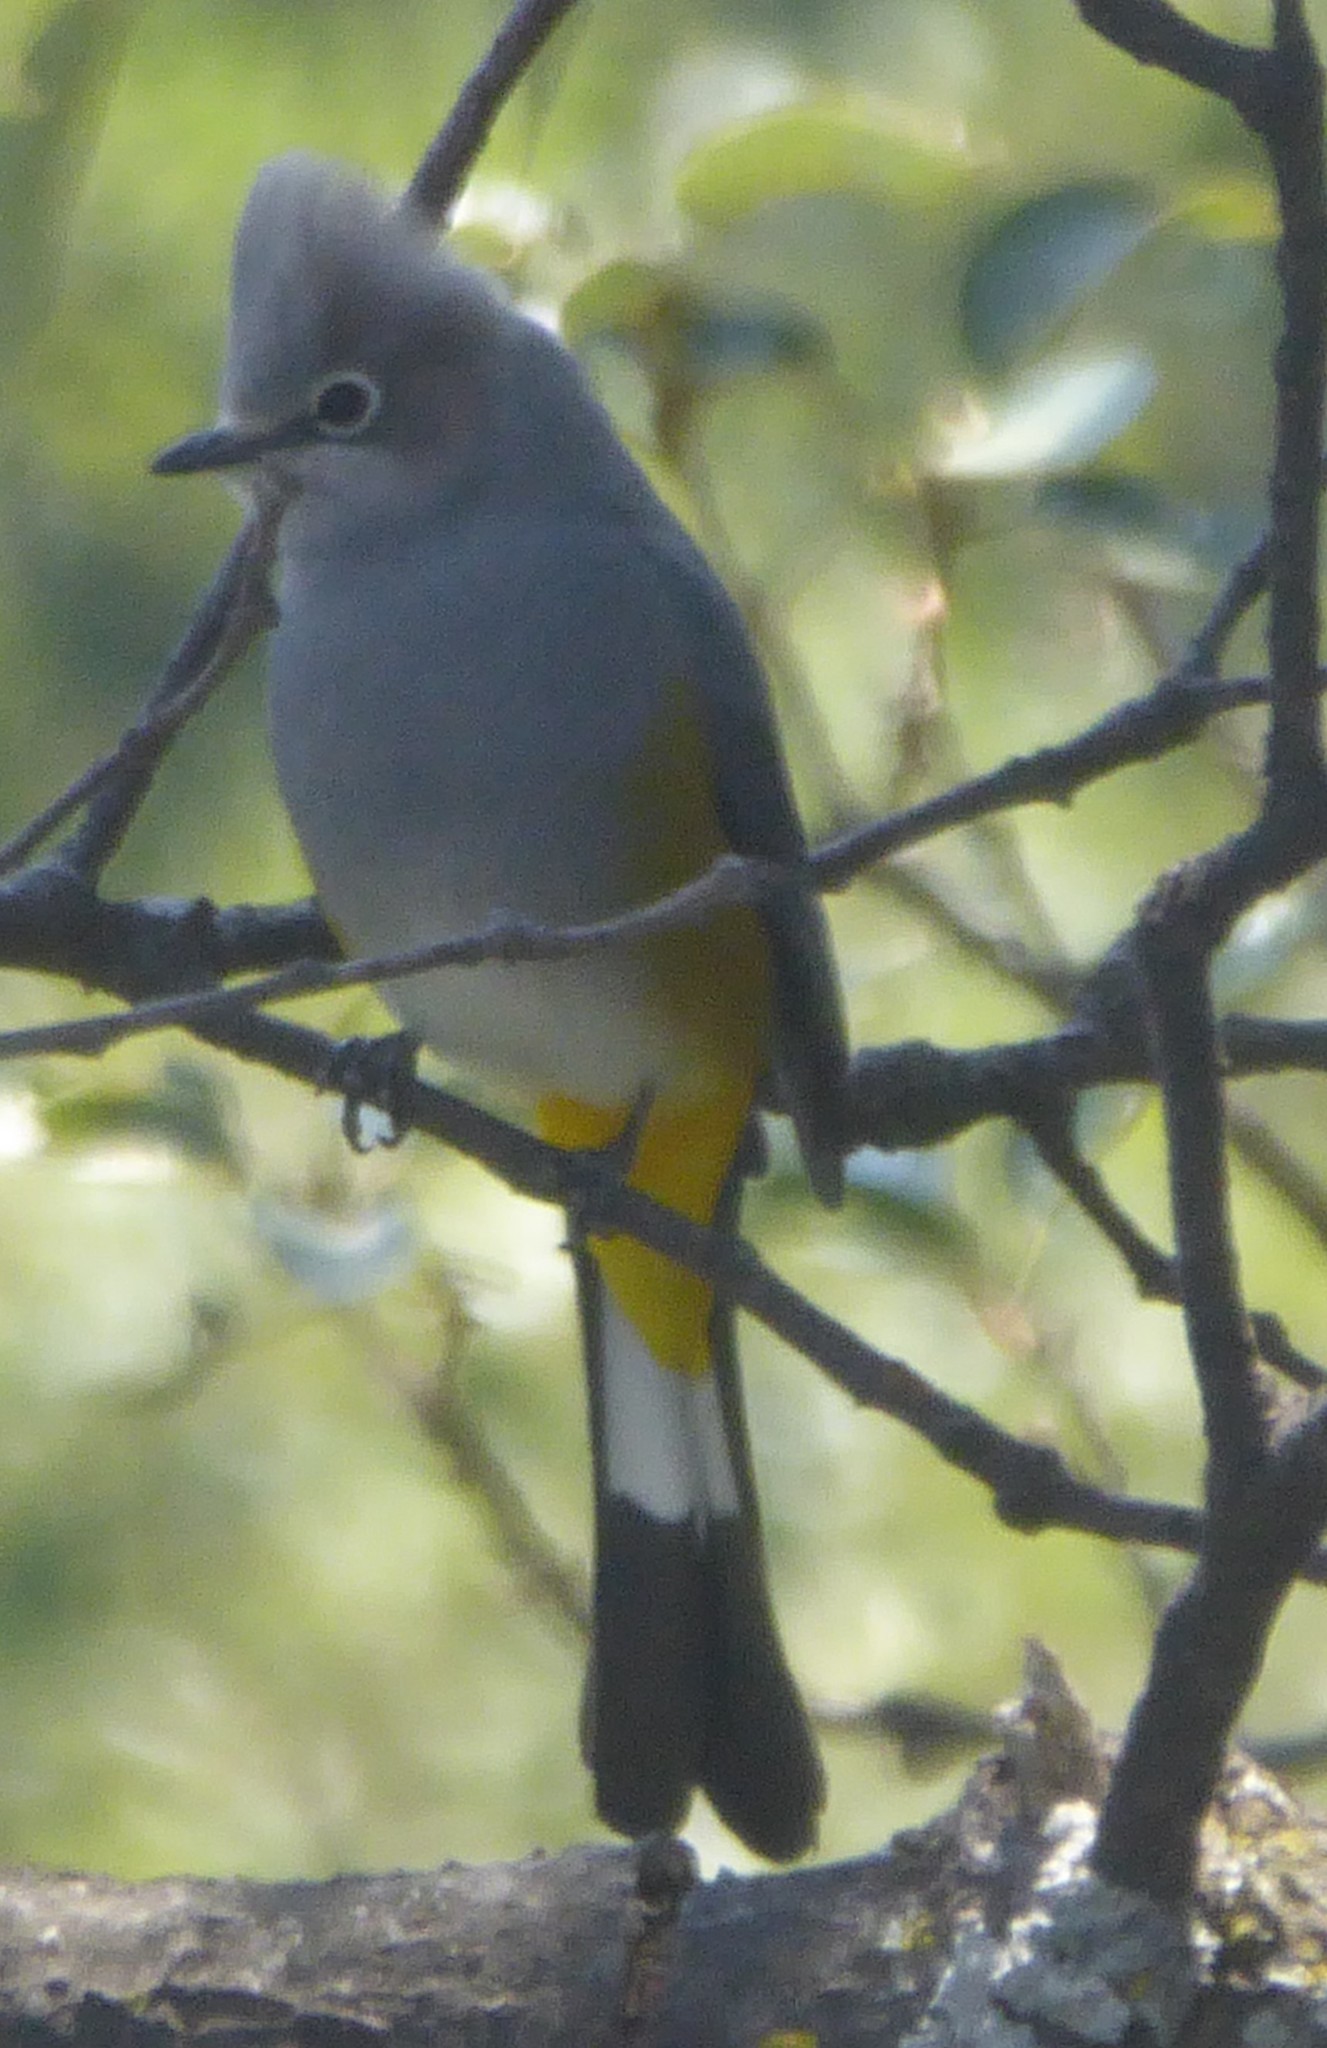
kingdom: Animalia
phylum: Chordata
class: Aves
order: Passeriformes
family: Ptilogonatidae
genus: Ptilogonys
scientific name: Ptilogonys cinereus
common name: Gray silky-flycatcher
